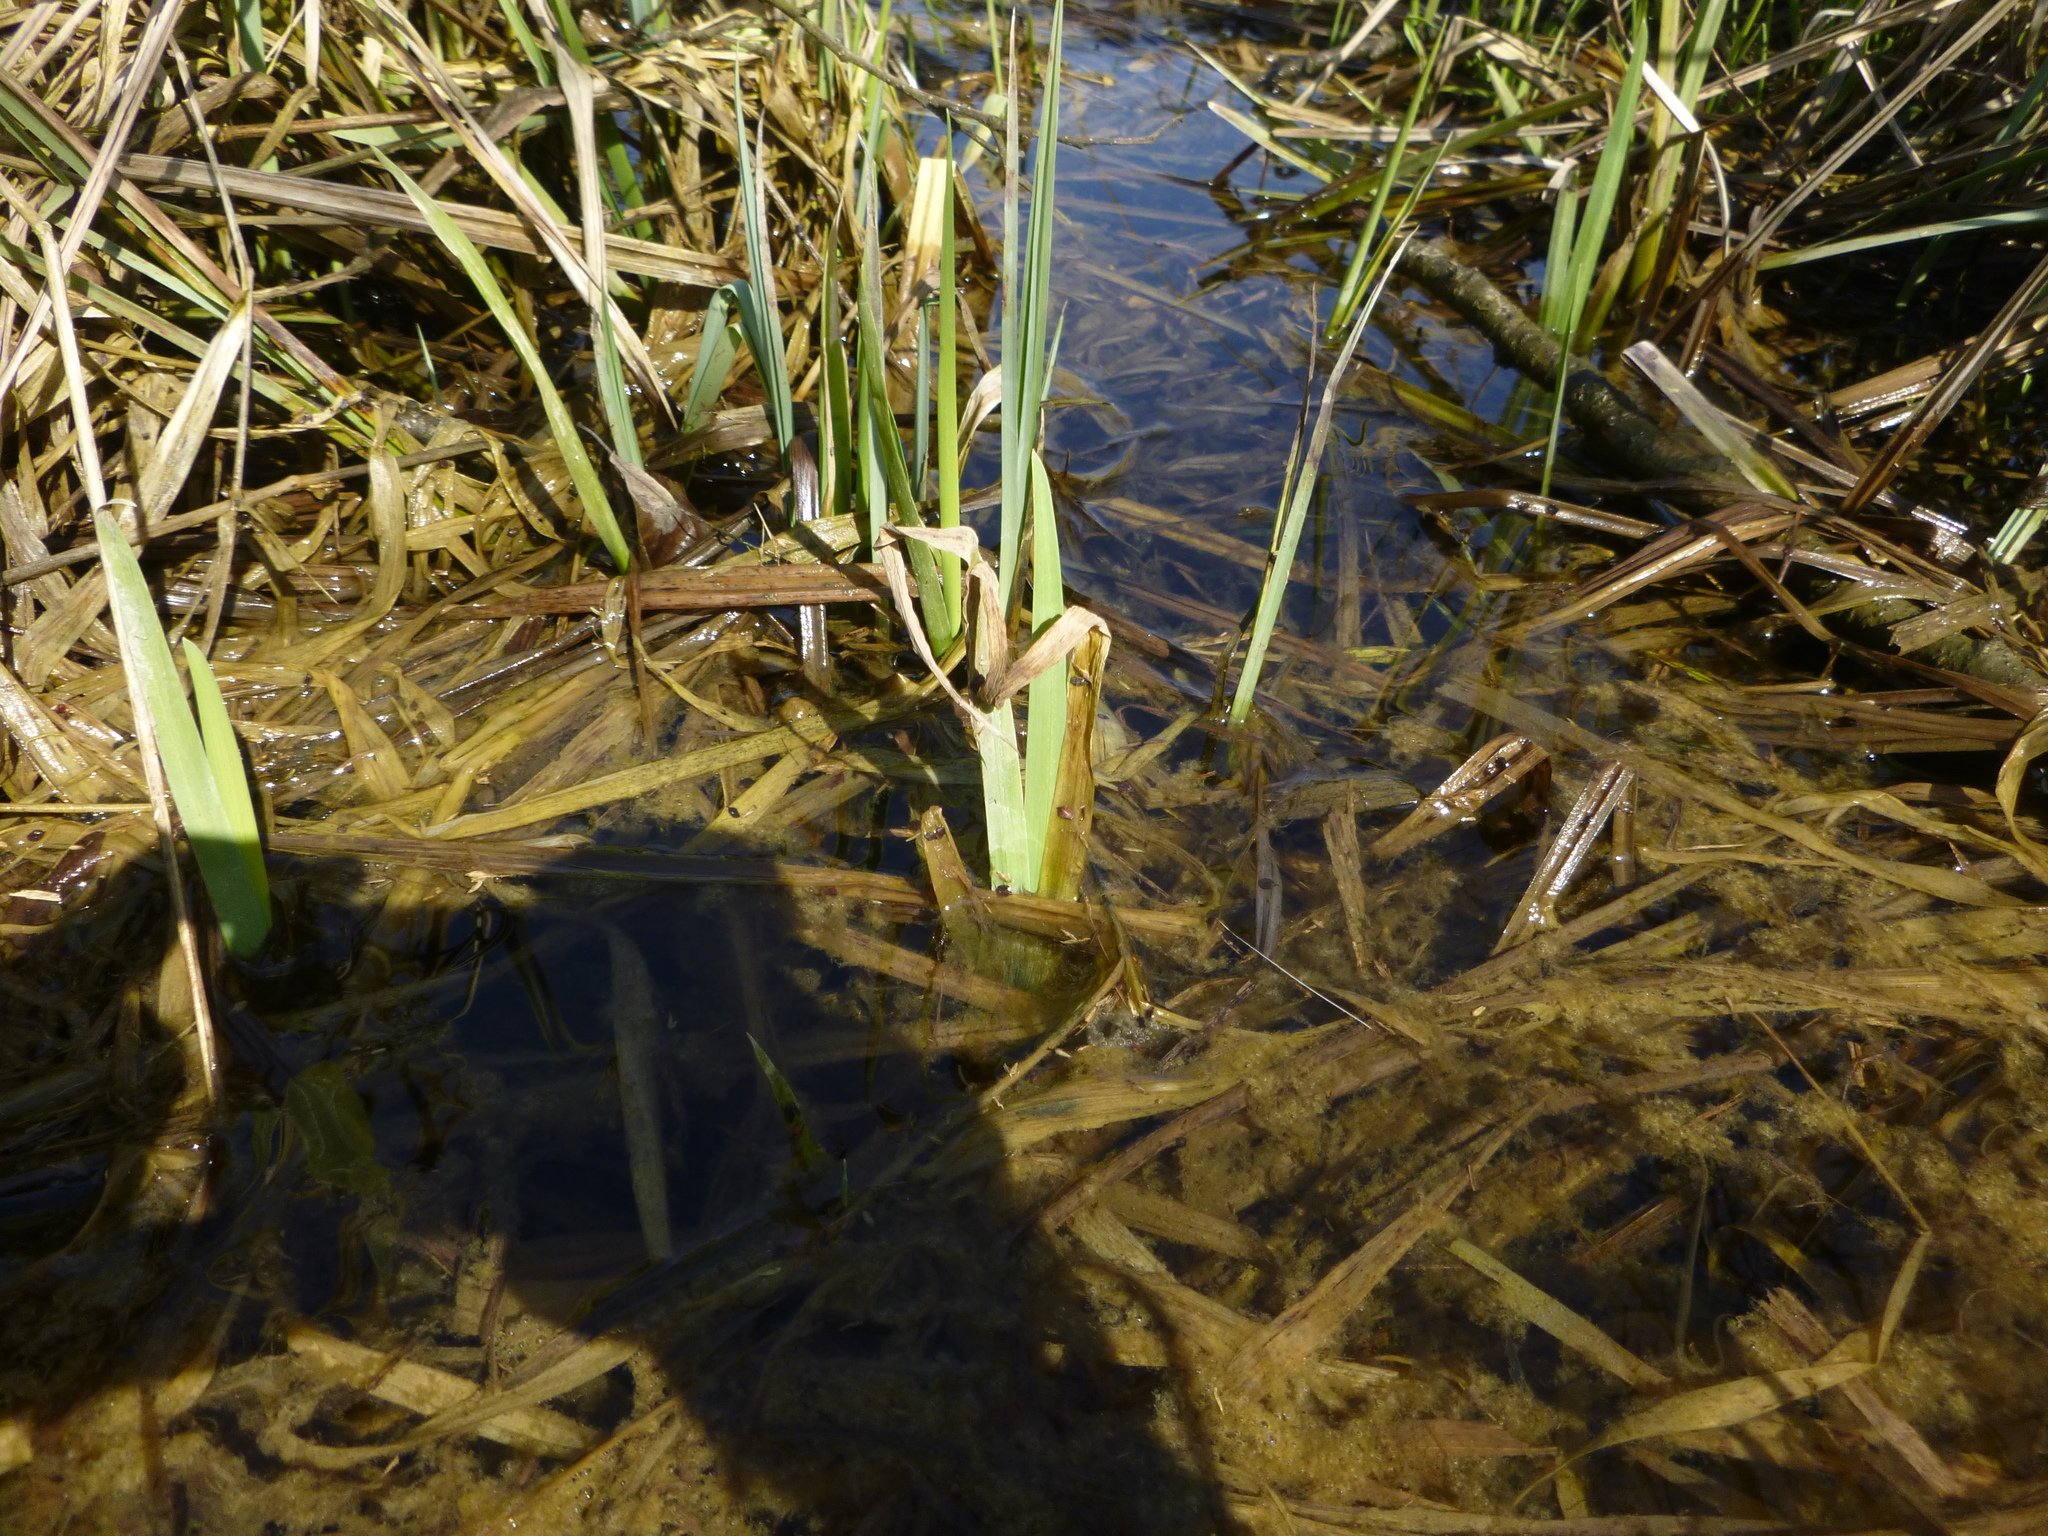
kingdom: Plantae
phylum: Tracheophyta
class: Liliopsida
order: Asparagales
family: Iridaceae
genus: Iris
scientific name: Iris pseudacorus
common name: Yellow flag
